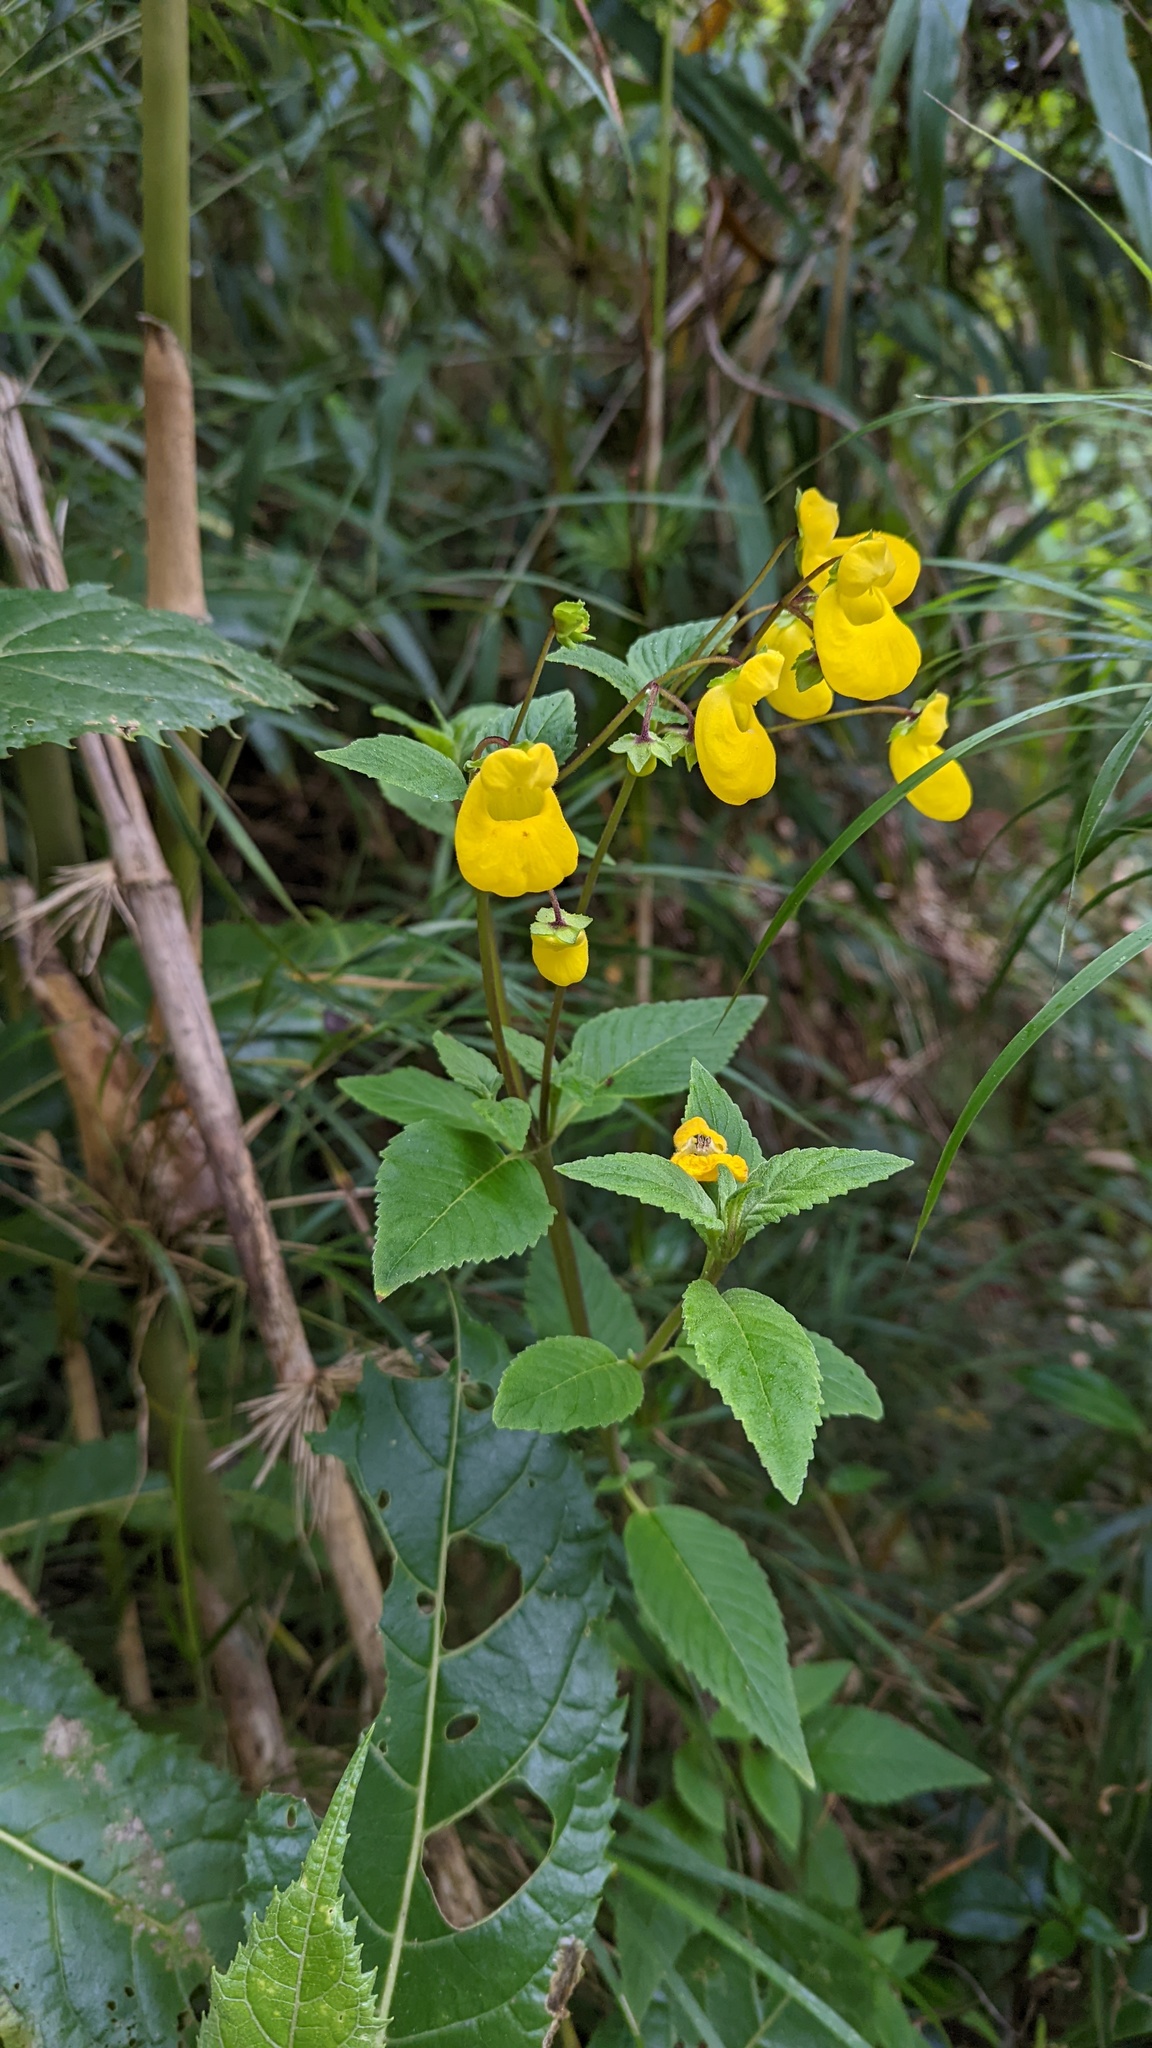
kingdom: Plantae
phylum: Tracheophyta
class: Magnoliopsida
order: Lamiales
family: Calceolariaceae
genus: Calceolaria
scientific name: Calceolaria irazuensis
